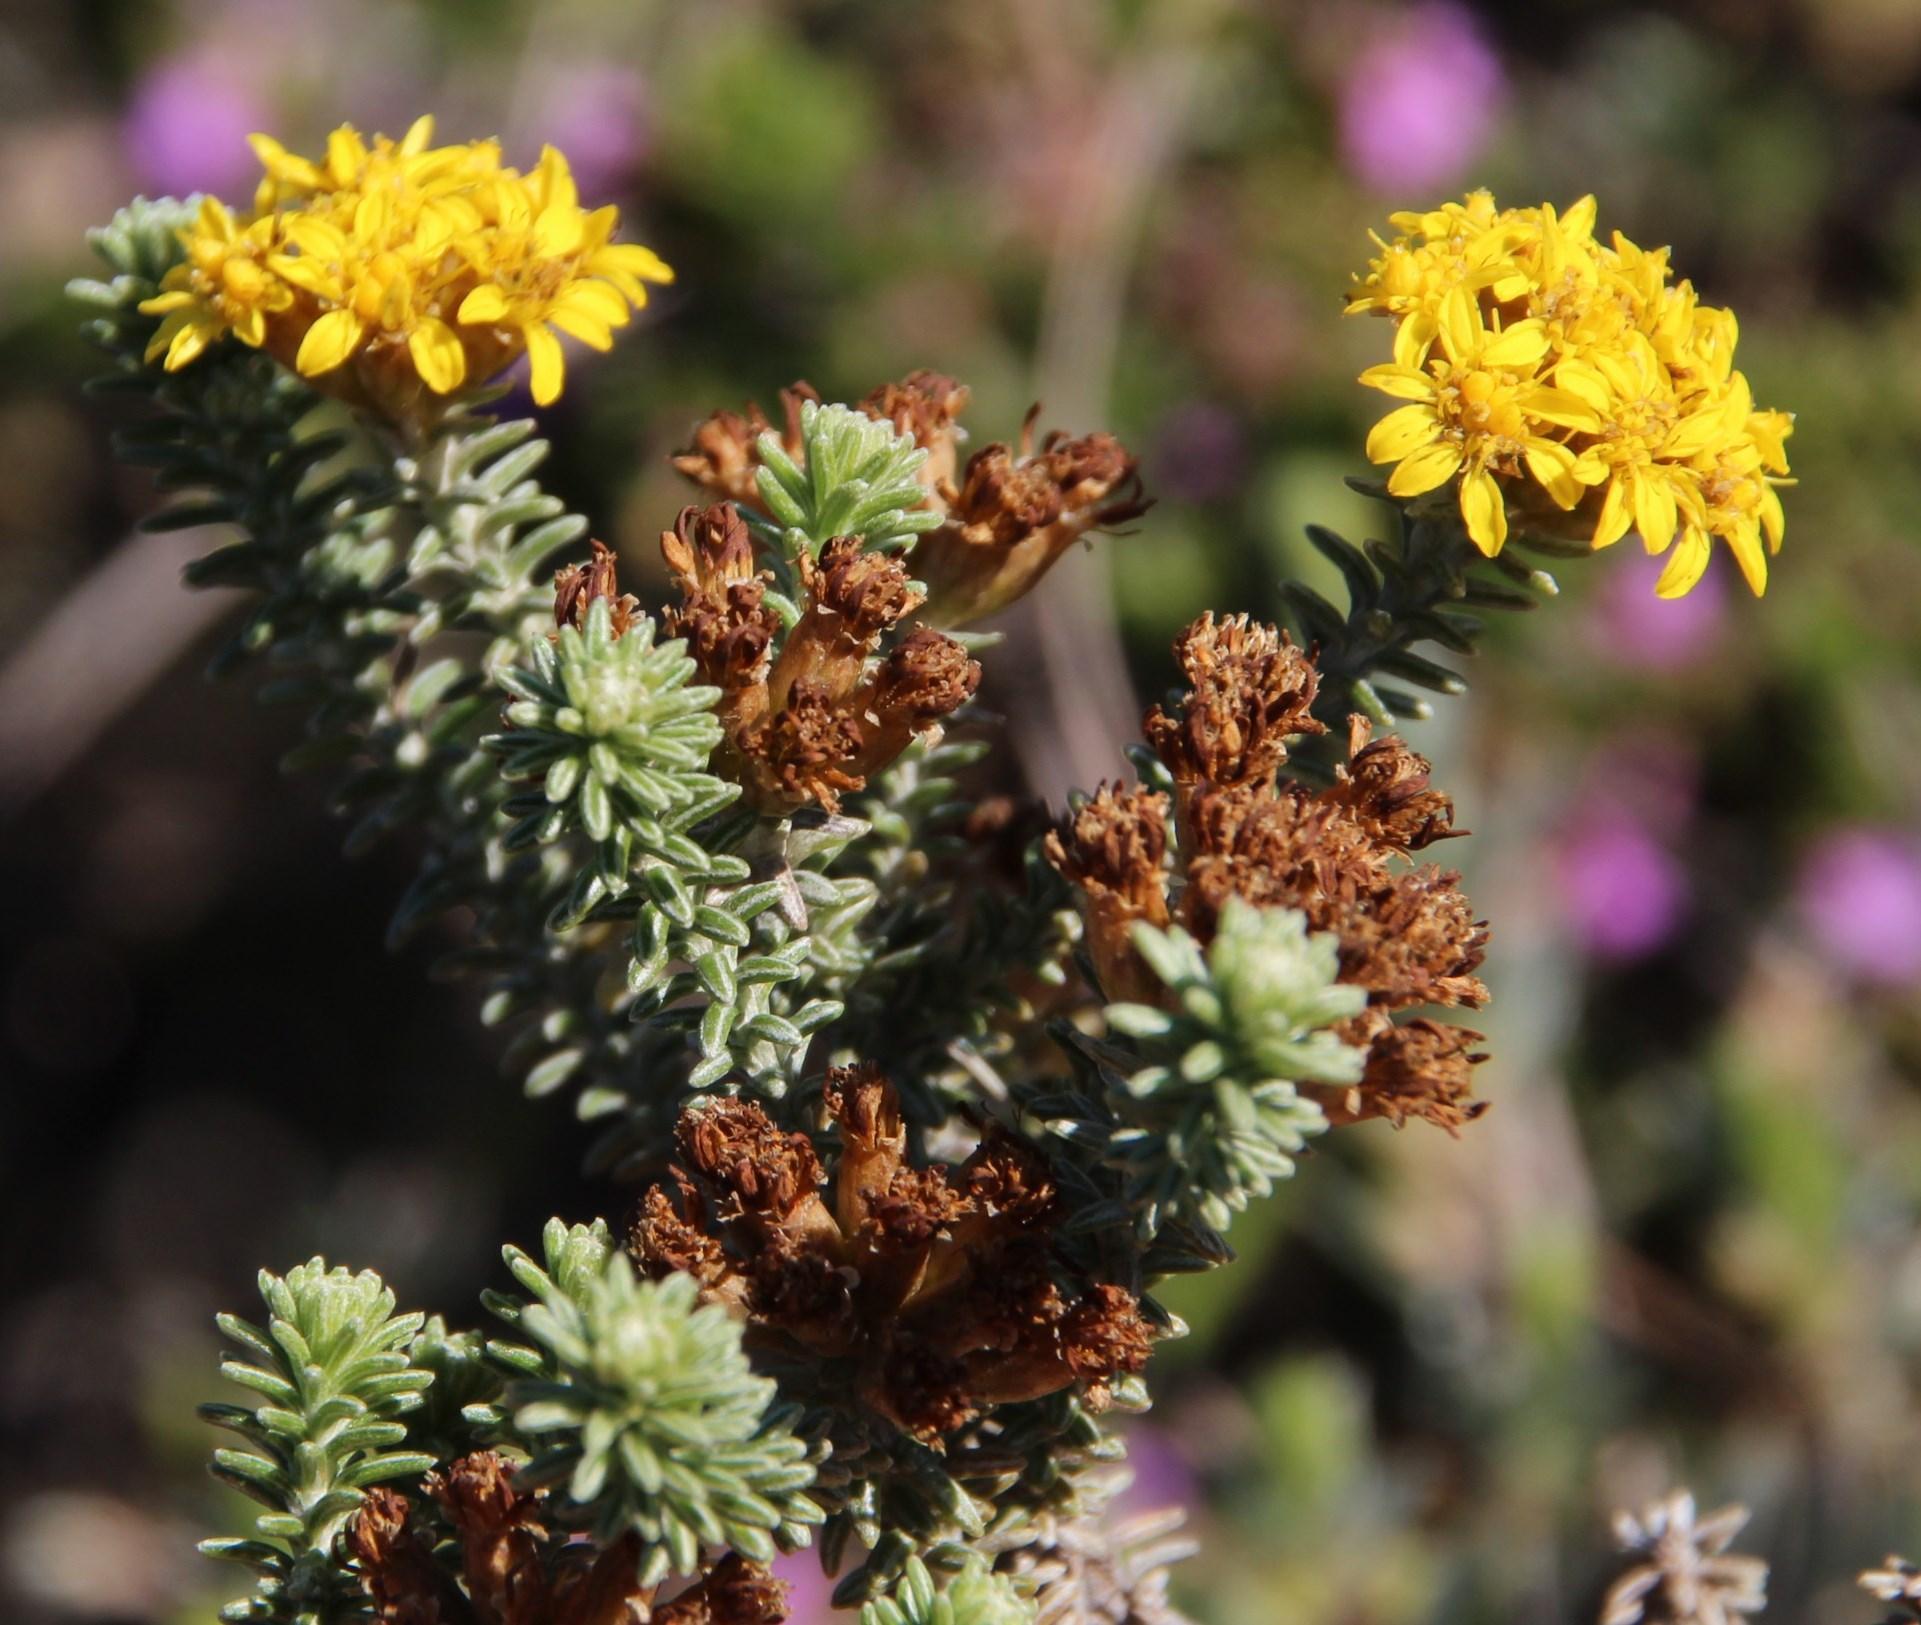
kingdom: Plantae
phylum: Tracheophyta
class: Magnoliopsida
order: Asterales
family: Asteraceae
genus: Oedera
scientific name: Oedera garnotii
